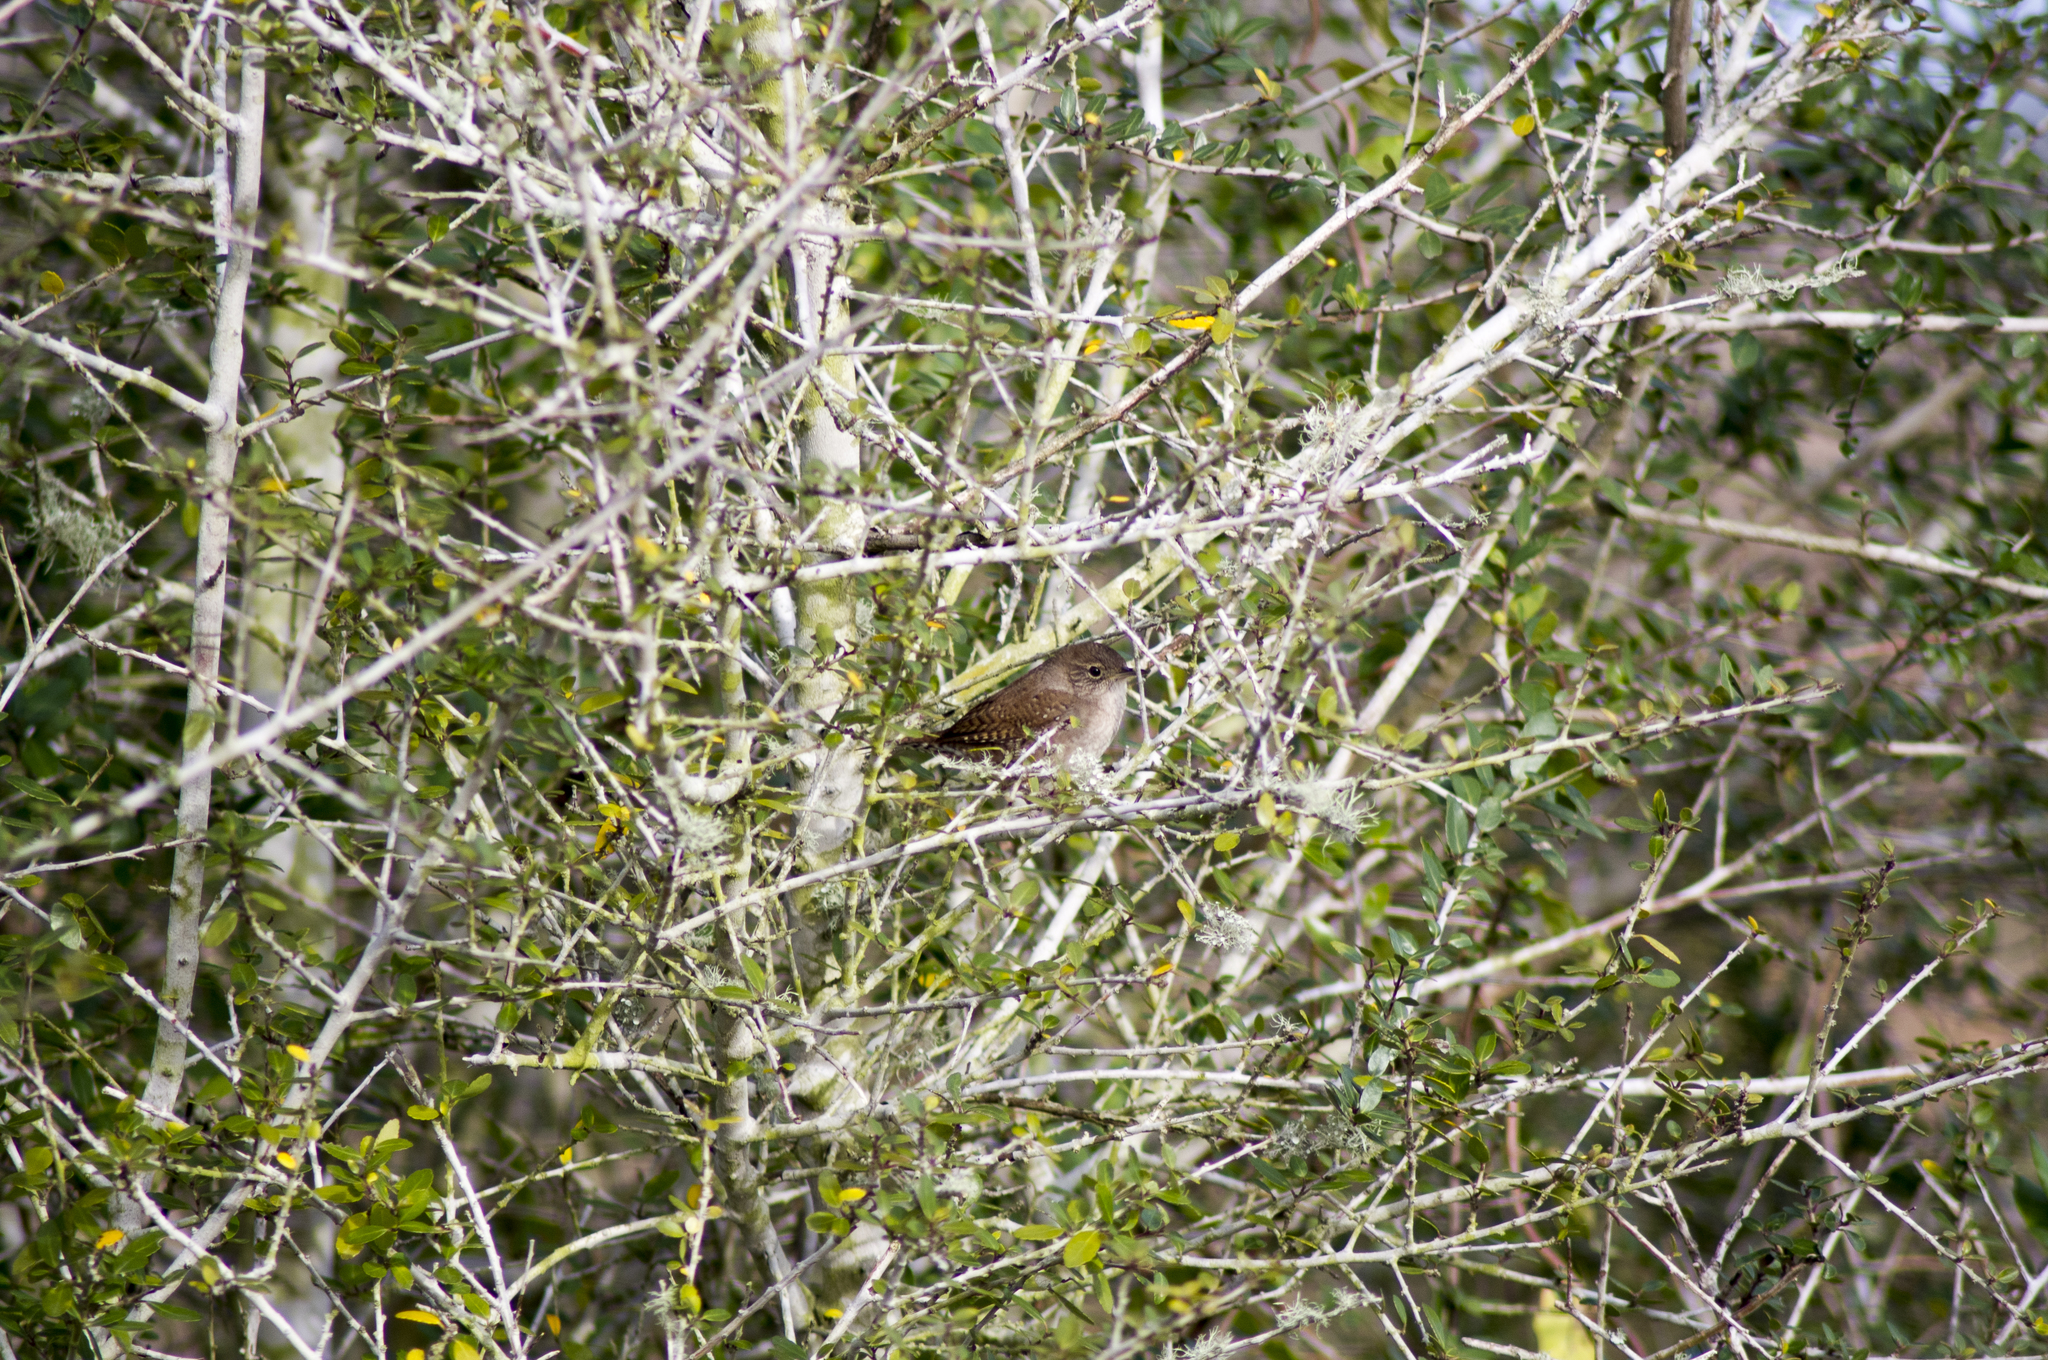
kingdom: Animalia
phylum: Chordata
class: Aves
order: Passeriformes
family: Troglodytidae
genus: Troglodytes
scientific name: Troglodytes aedon
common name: House wren
